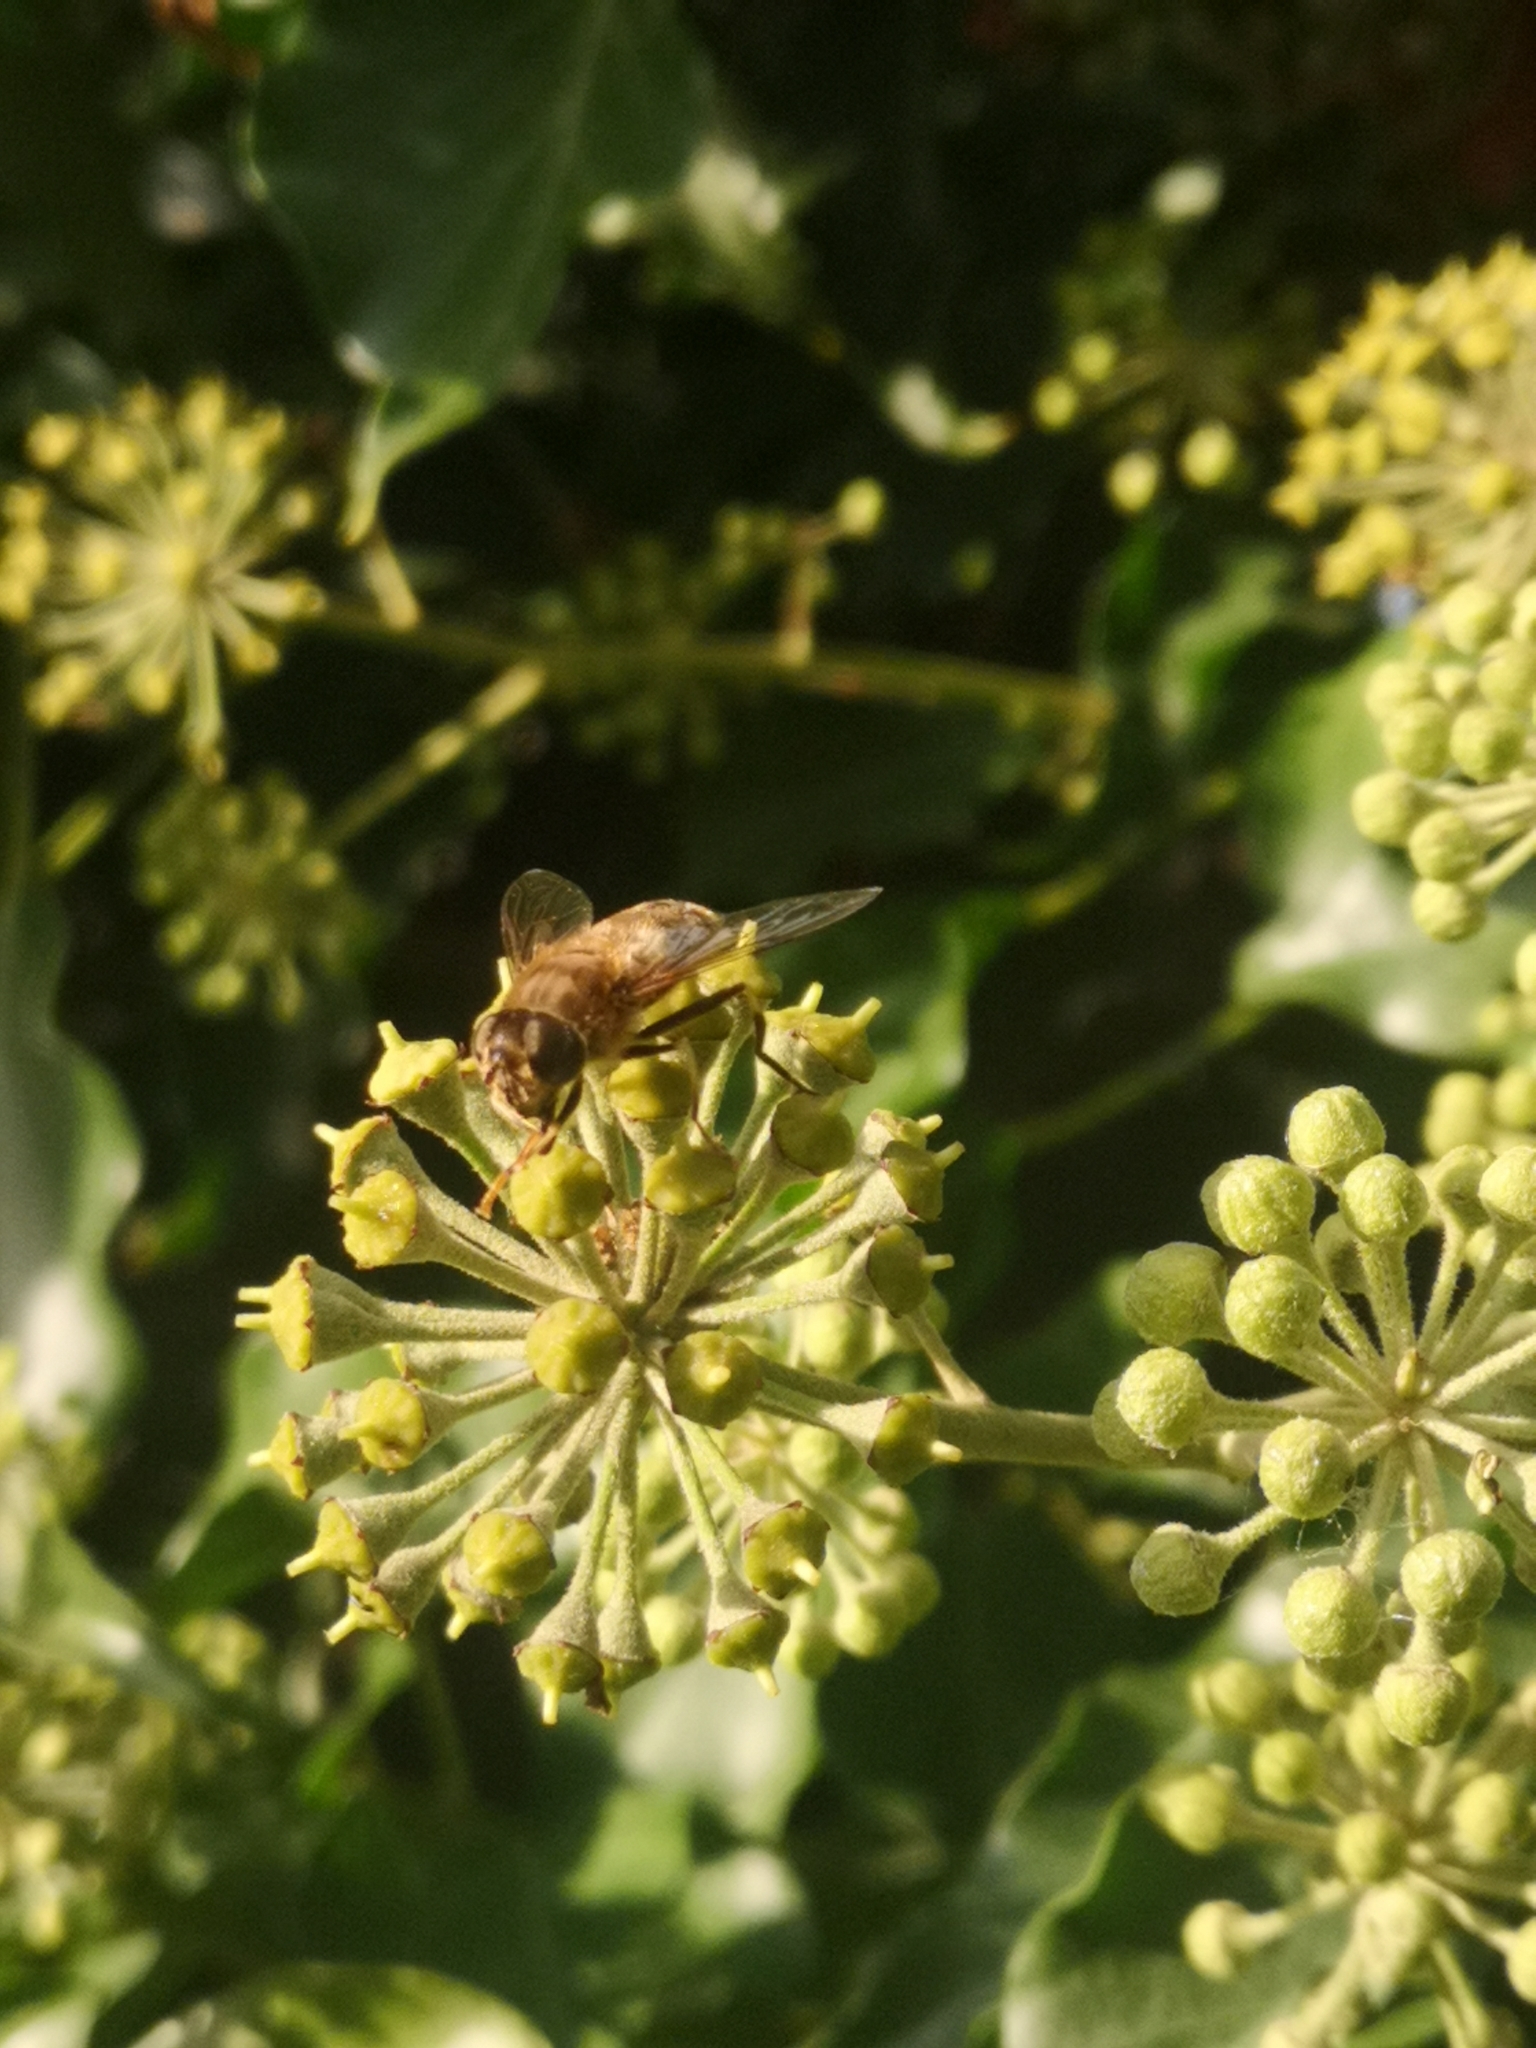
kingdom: Animalia
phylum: Arthropoda
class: Insecta
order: Diptera
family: Syrphidae
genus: Eristalis
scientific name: Eristalis pertinax
